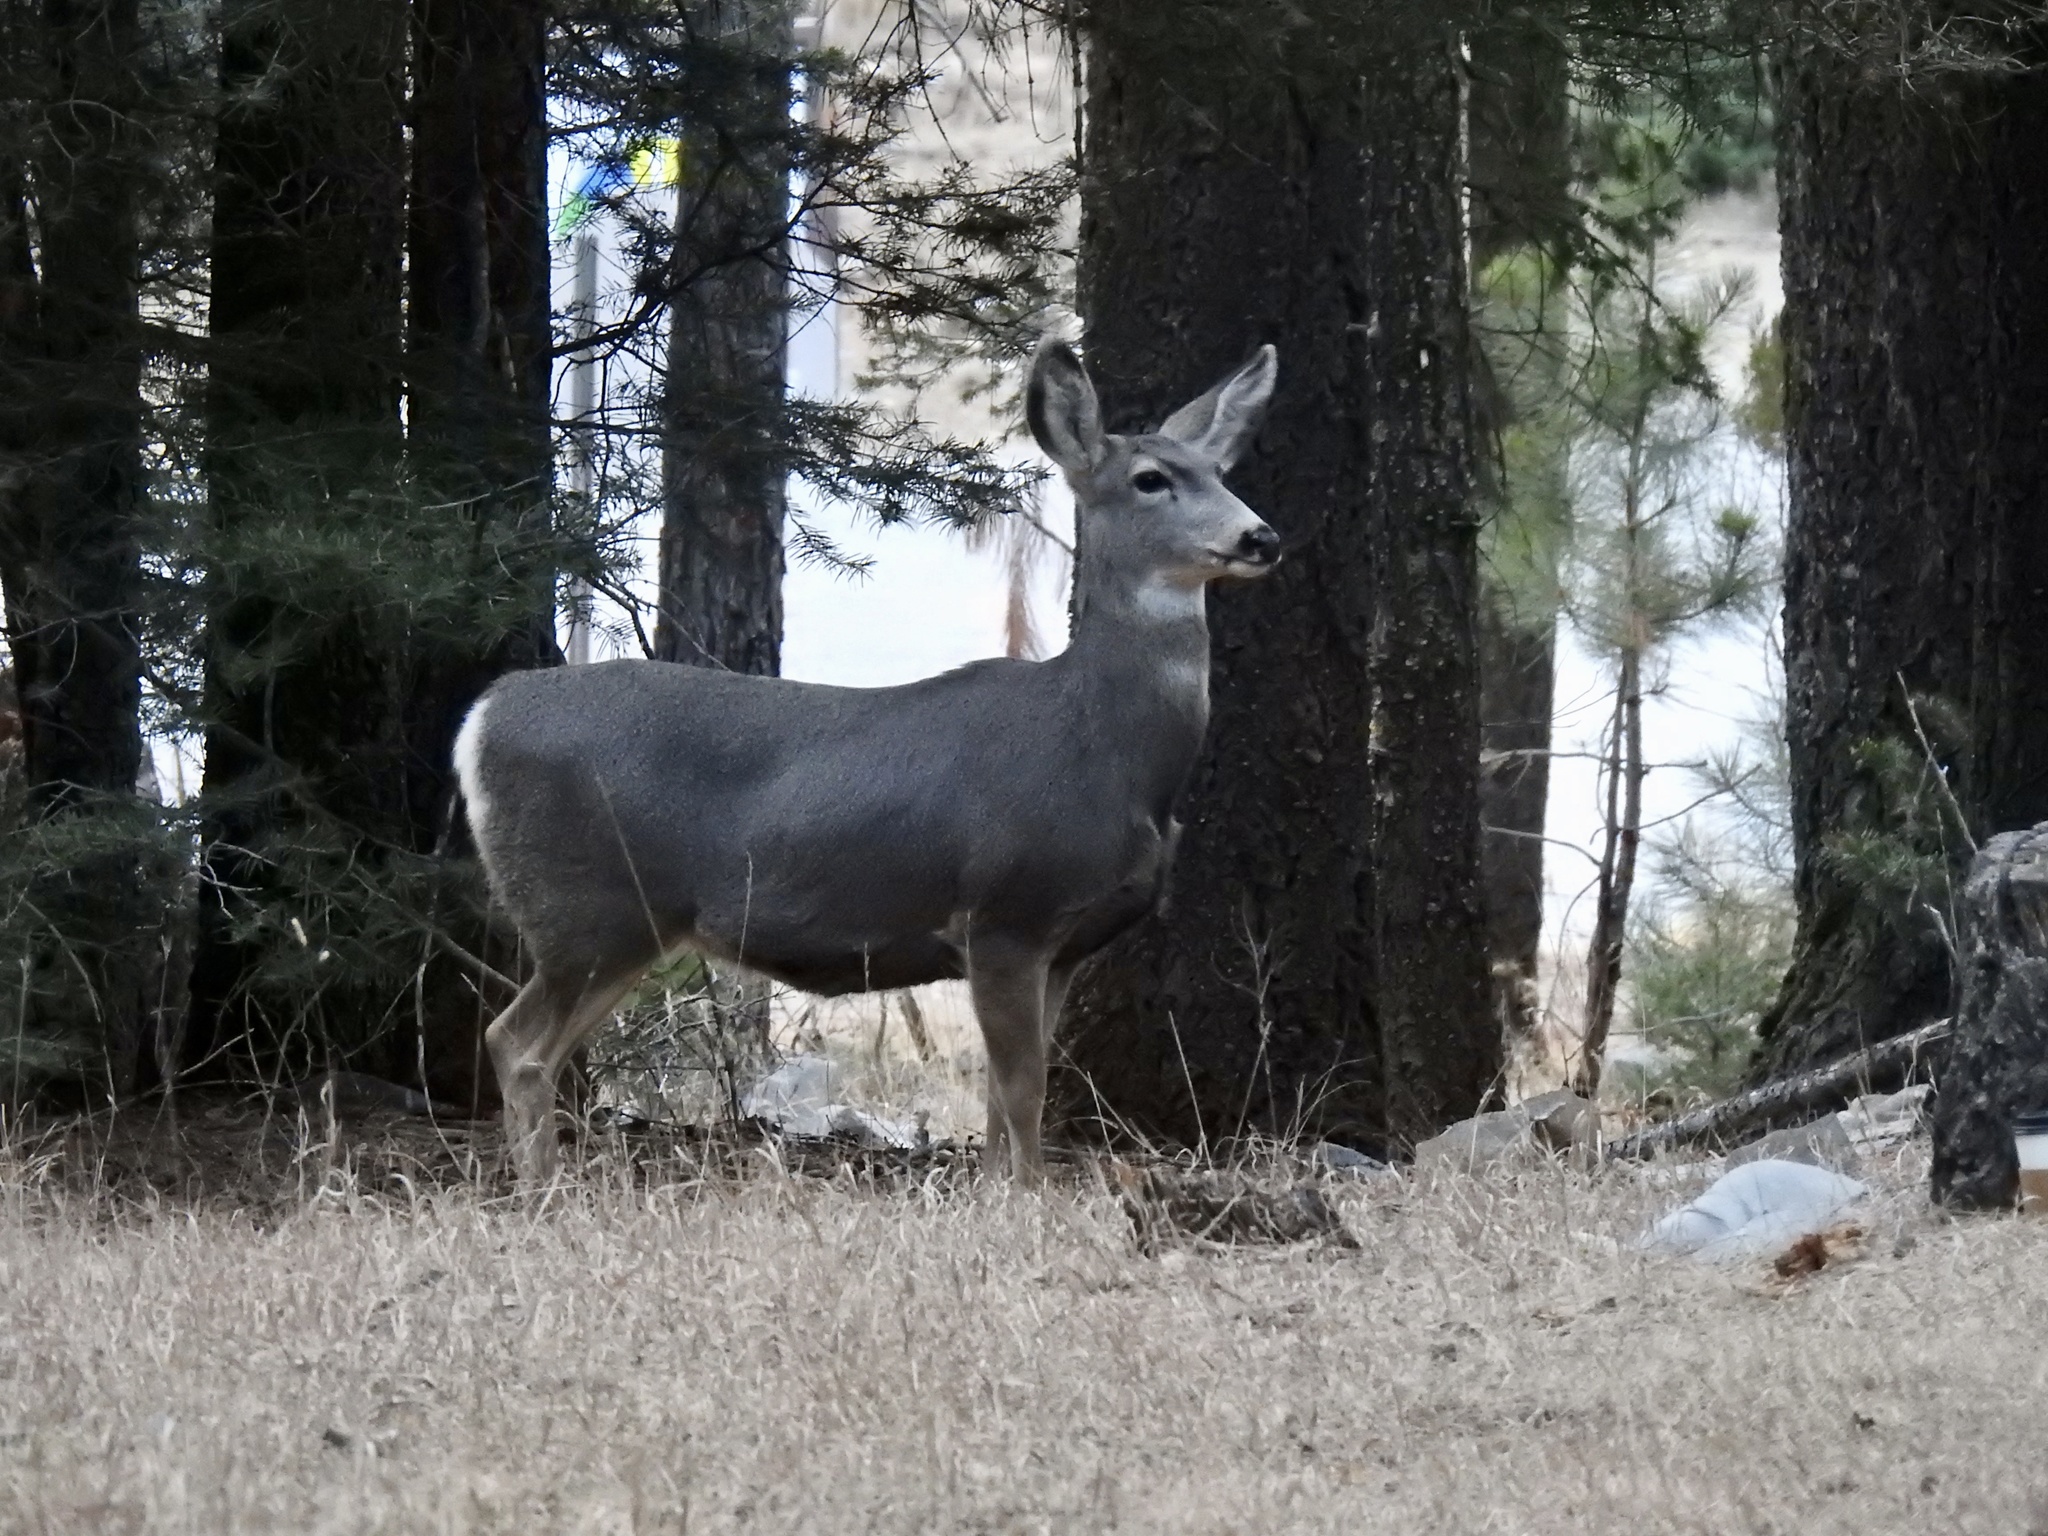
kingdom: Animalia
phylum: Chordata
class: Mammalia
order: Artiodactyla
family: Cervidae
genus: Odocoileus
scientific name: Odocoileus hemionus
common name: Mule deer
